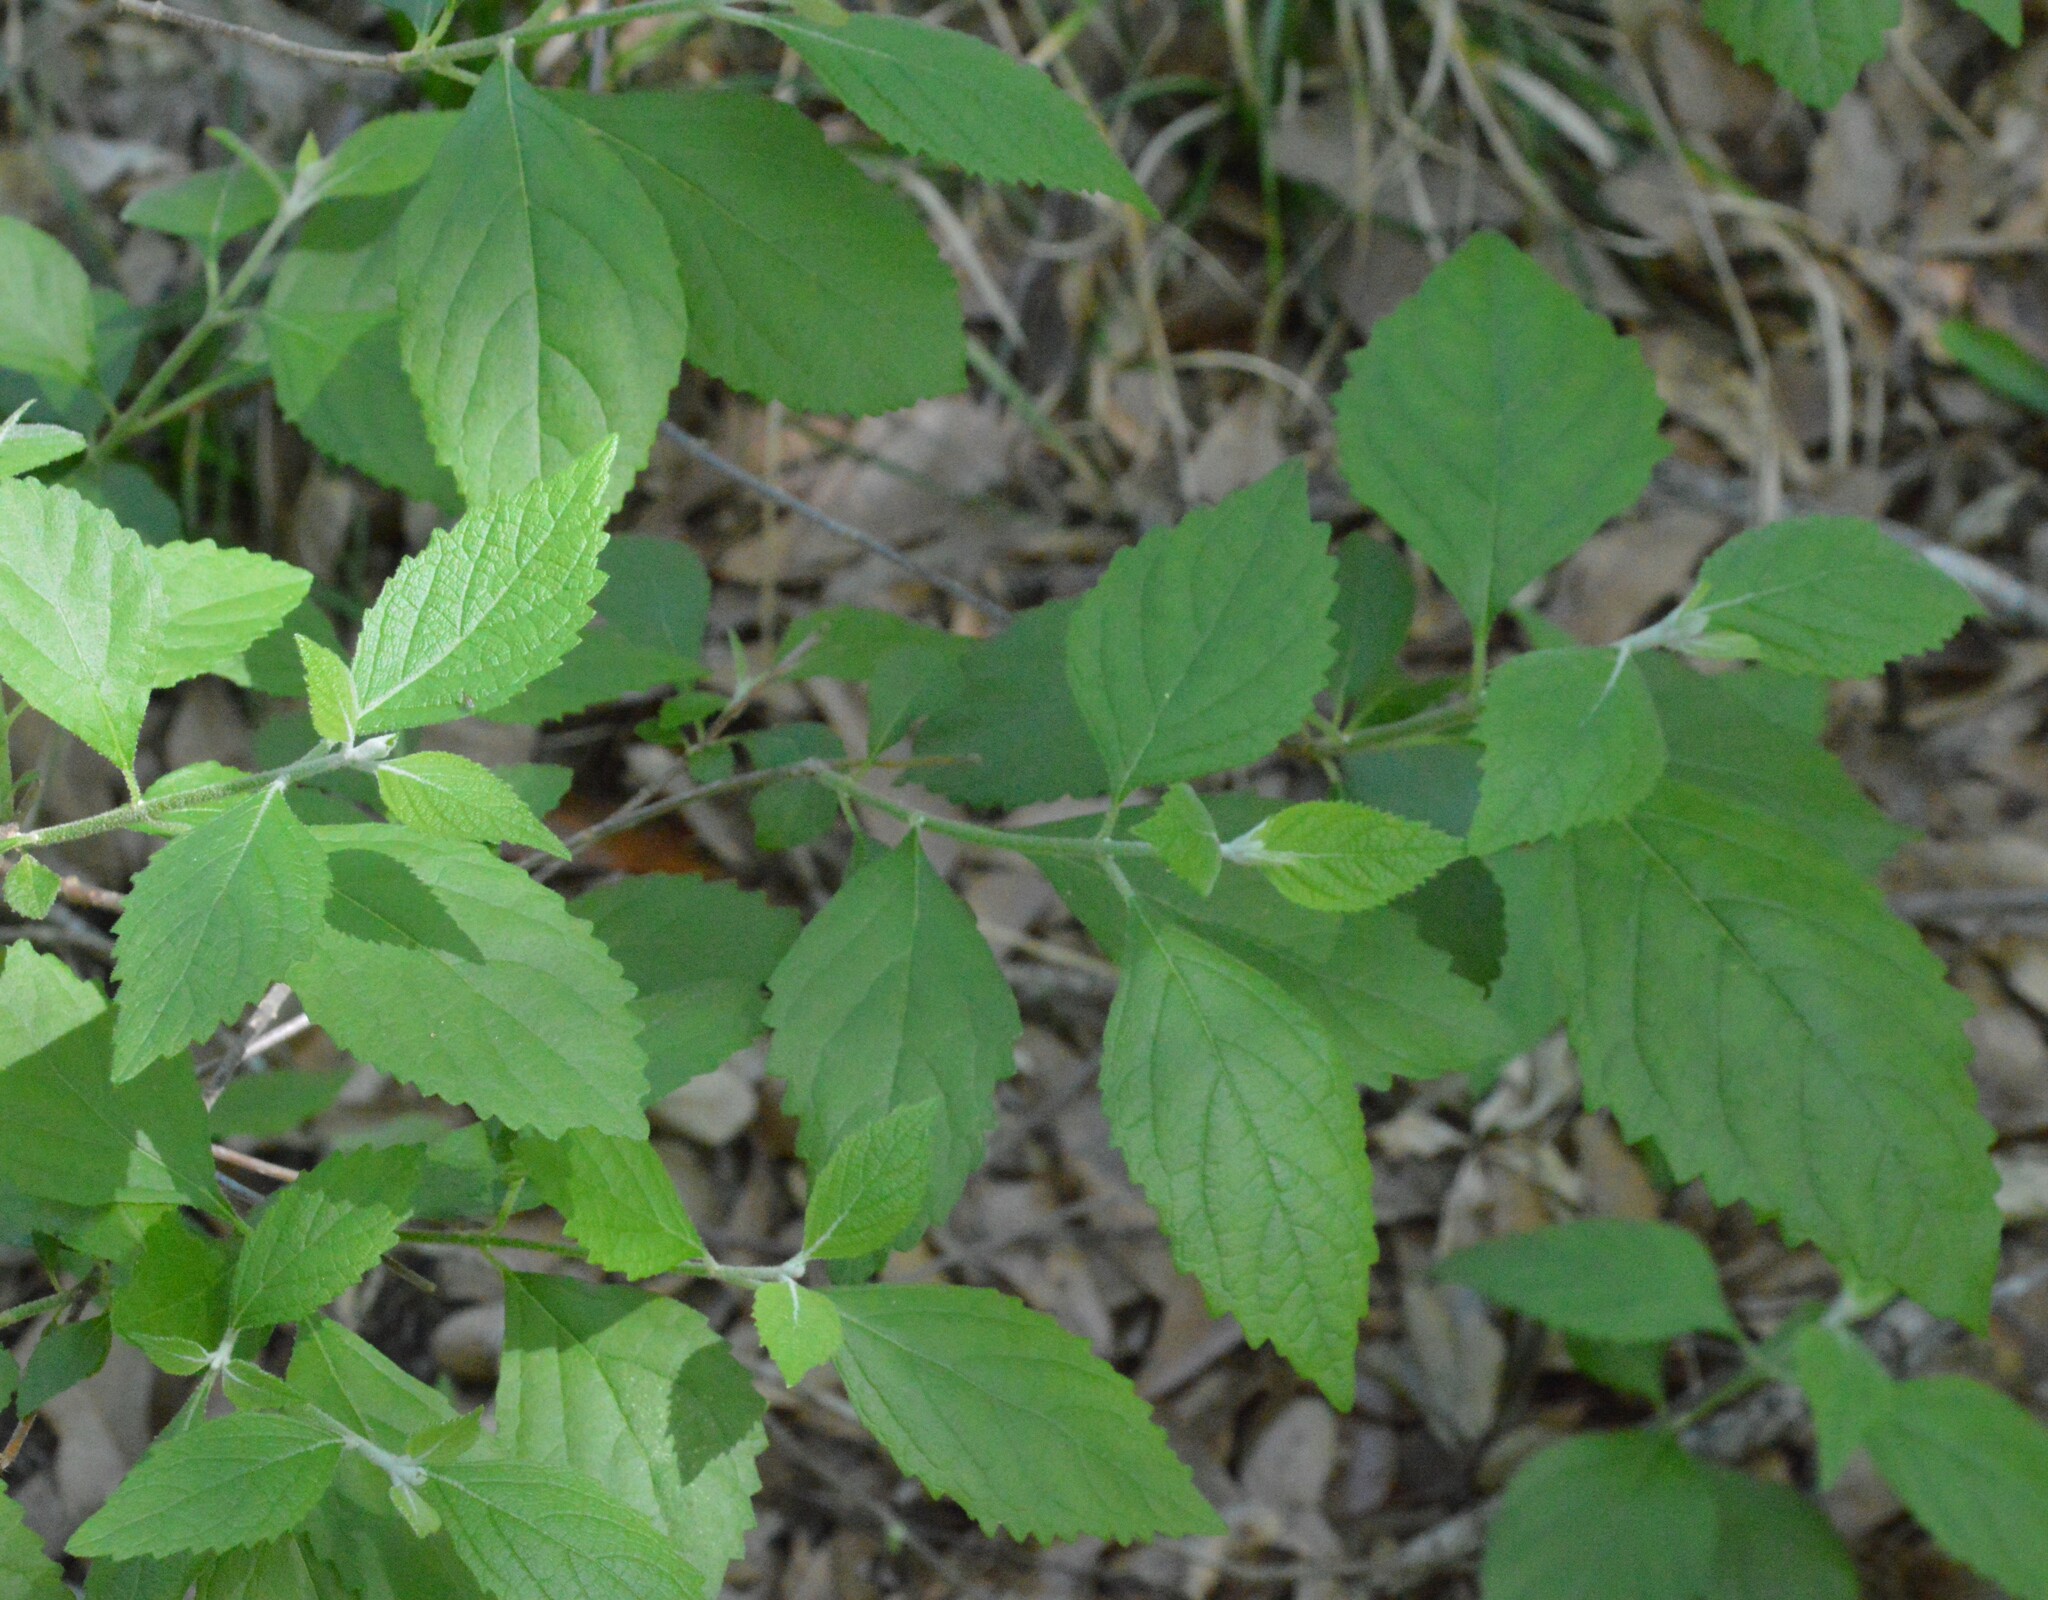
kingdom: Plantae
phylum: Tracheophyta
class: Magnoliopsida
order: Lamiales
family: Lamiaceae
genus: Callicarpa
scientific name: Callicarpa americana
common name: American beautyberry
